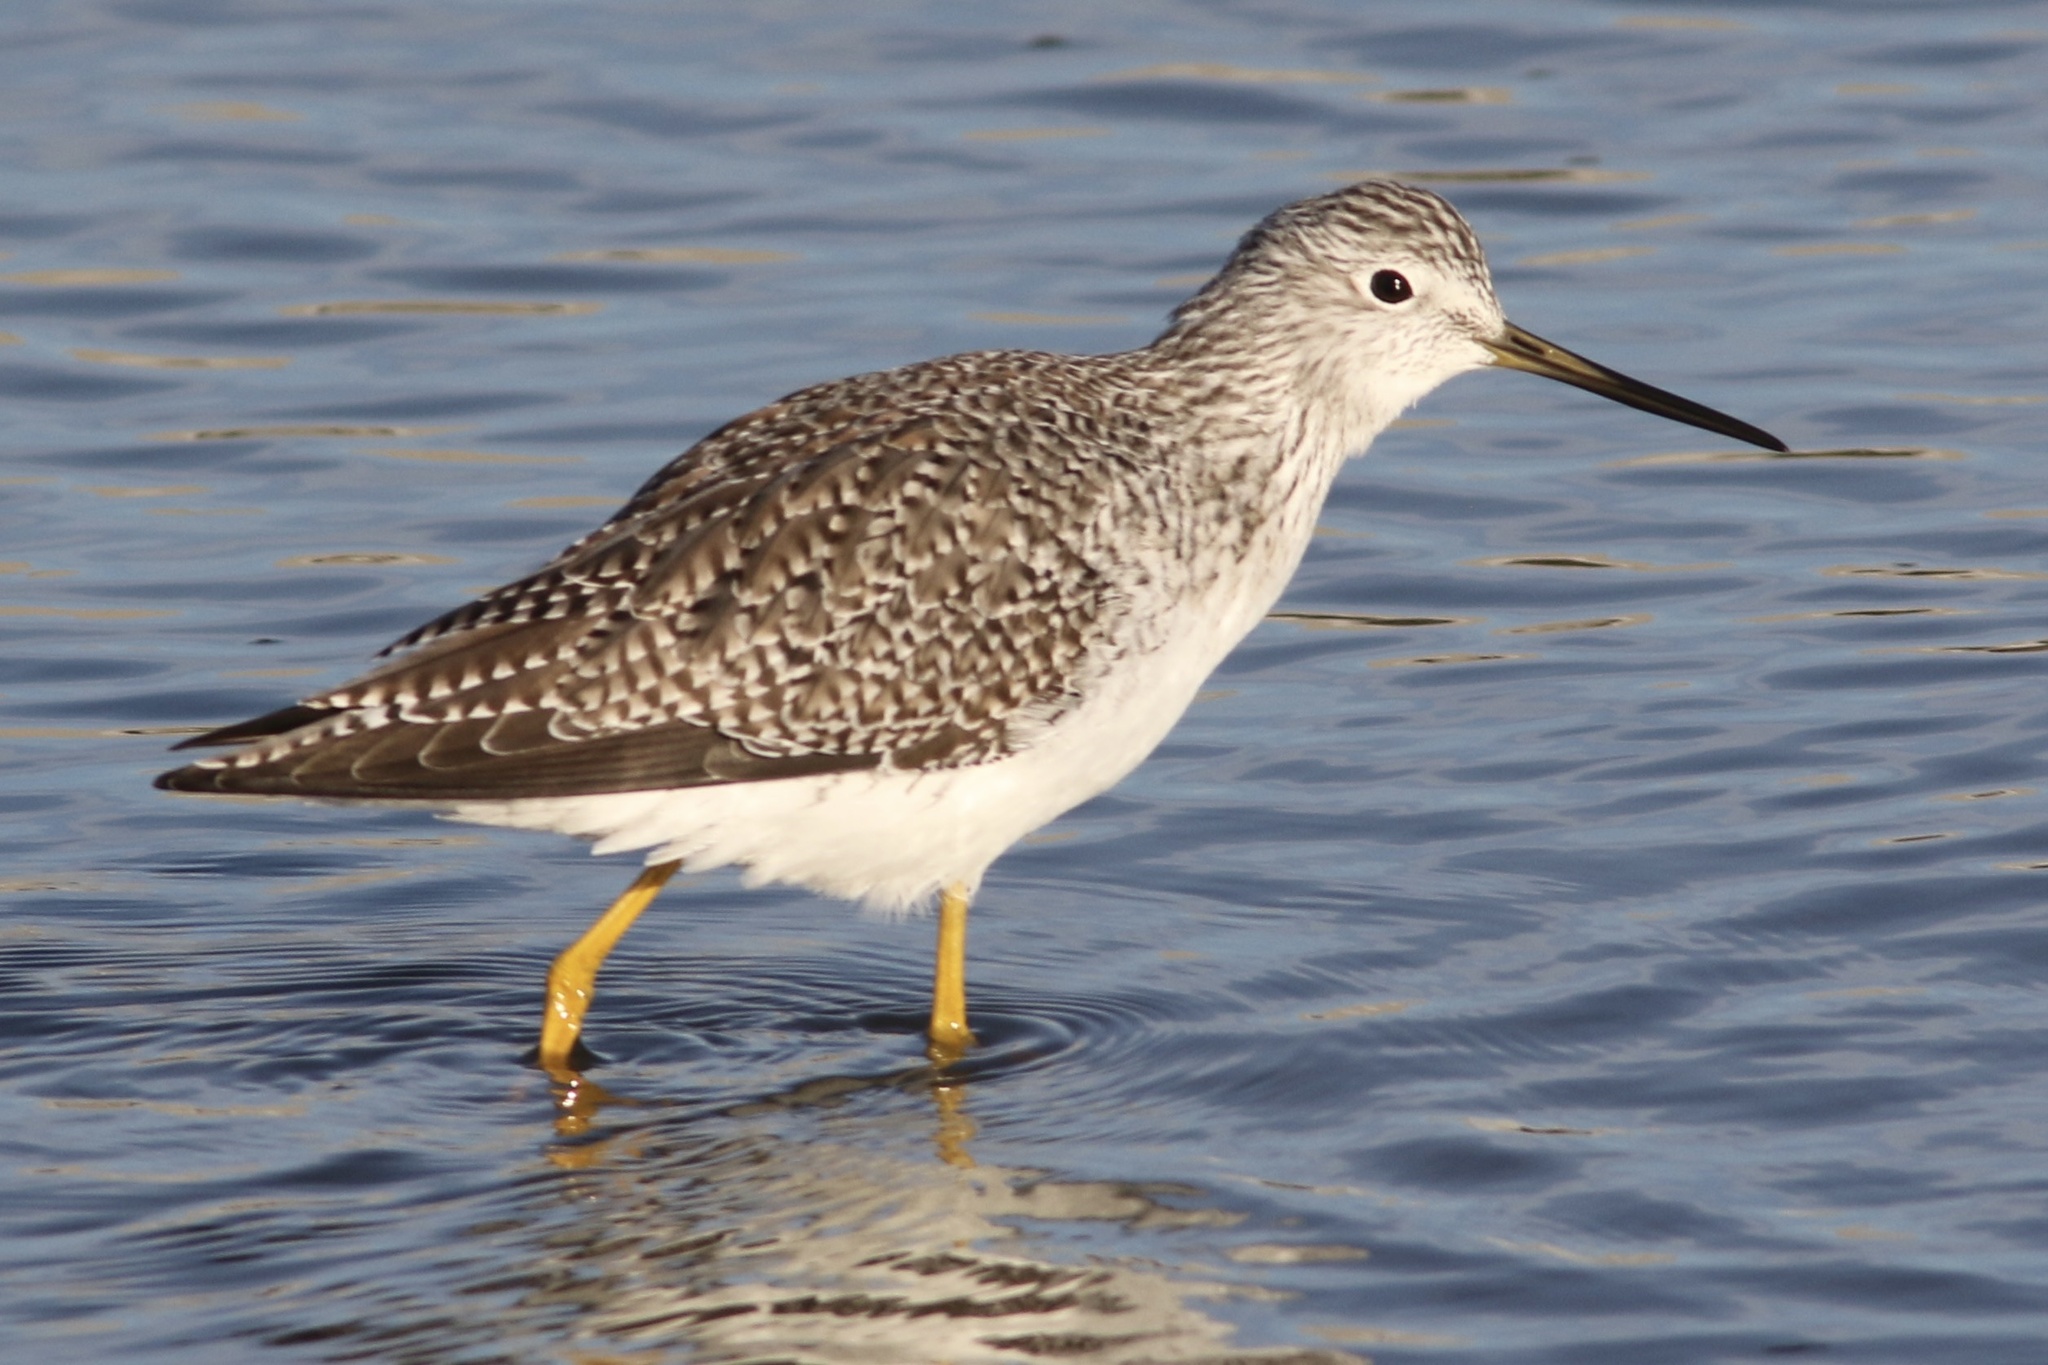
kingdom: Animalia
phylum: Chordata
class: Aves
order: Charadriiformes
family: Scolopacidae
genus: Tringa
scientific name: Tringa melanoleuca
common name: Greater yellowlegs
